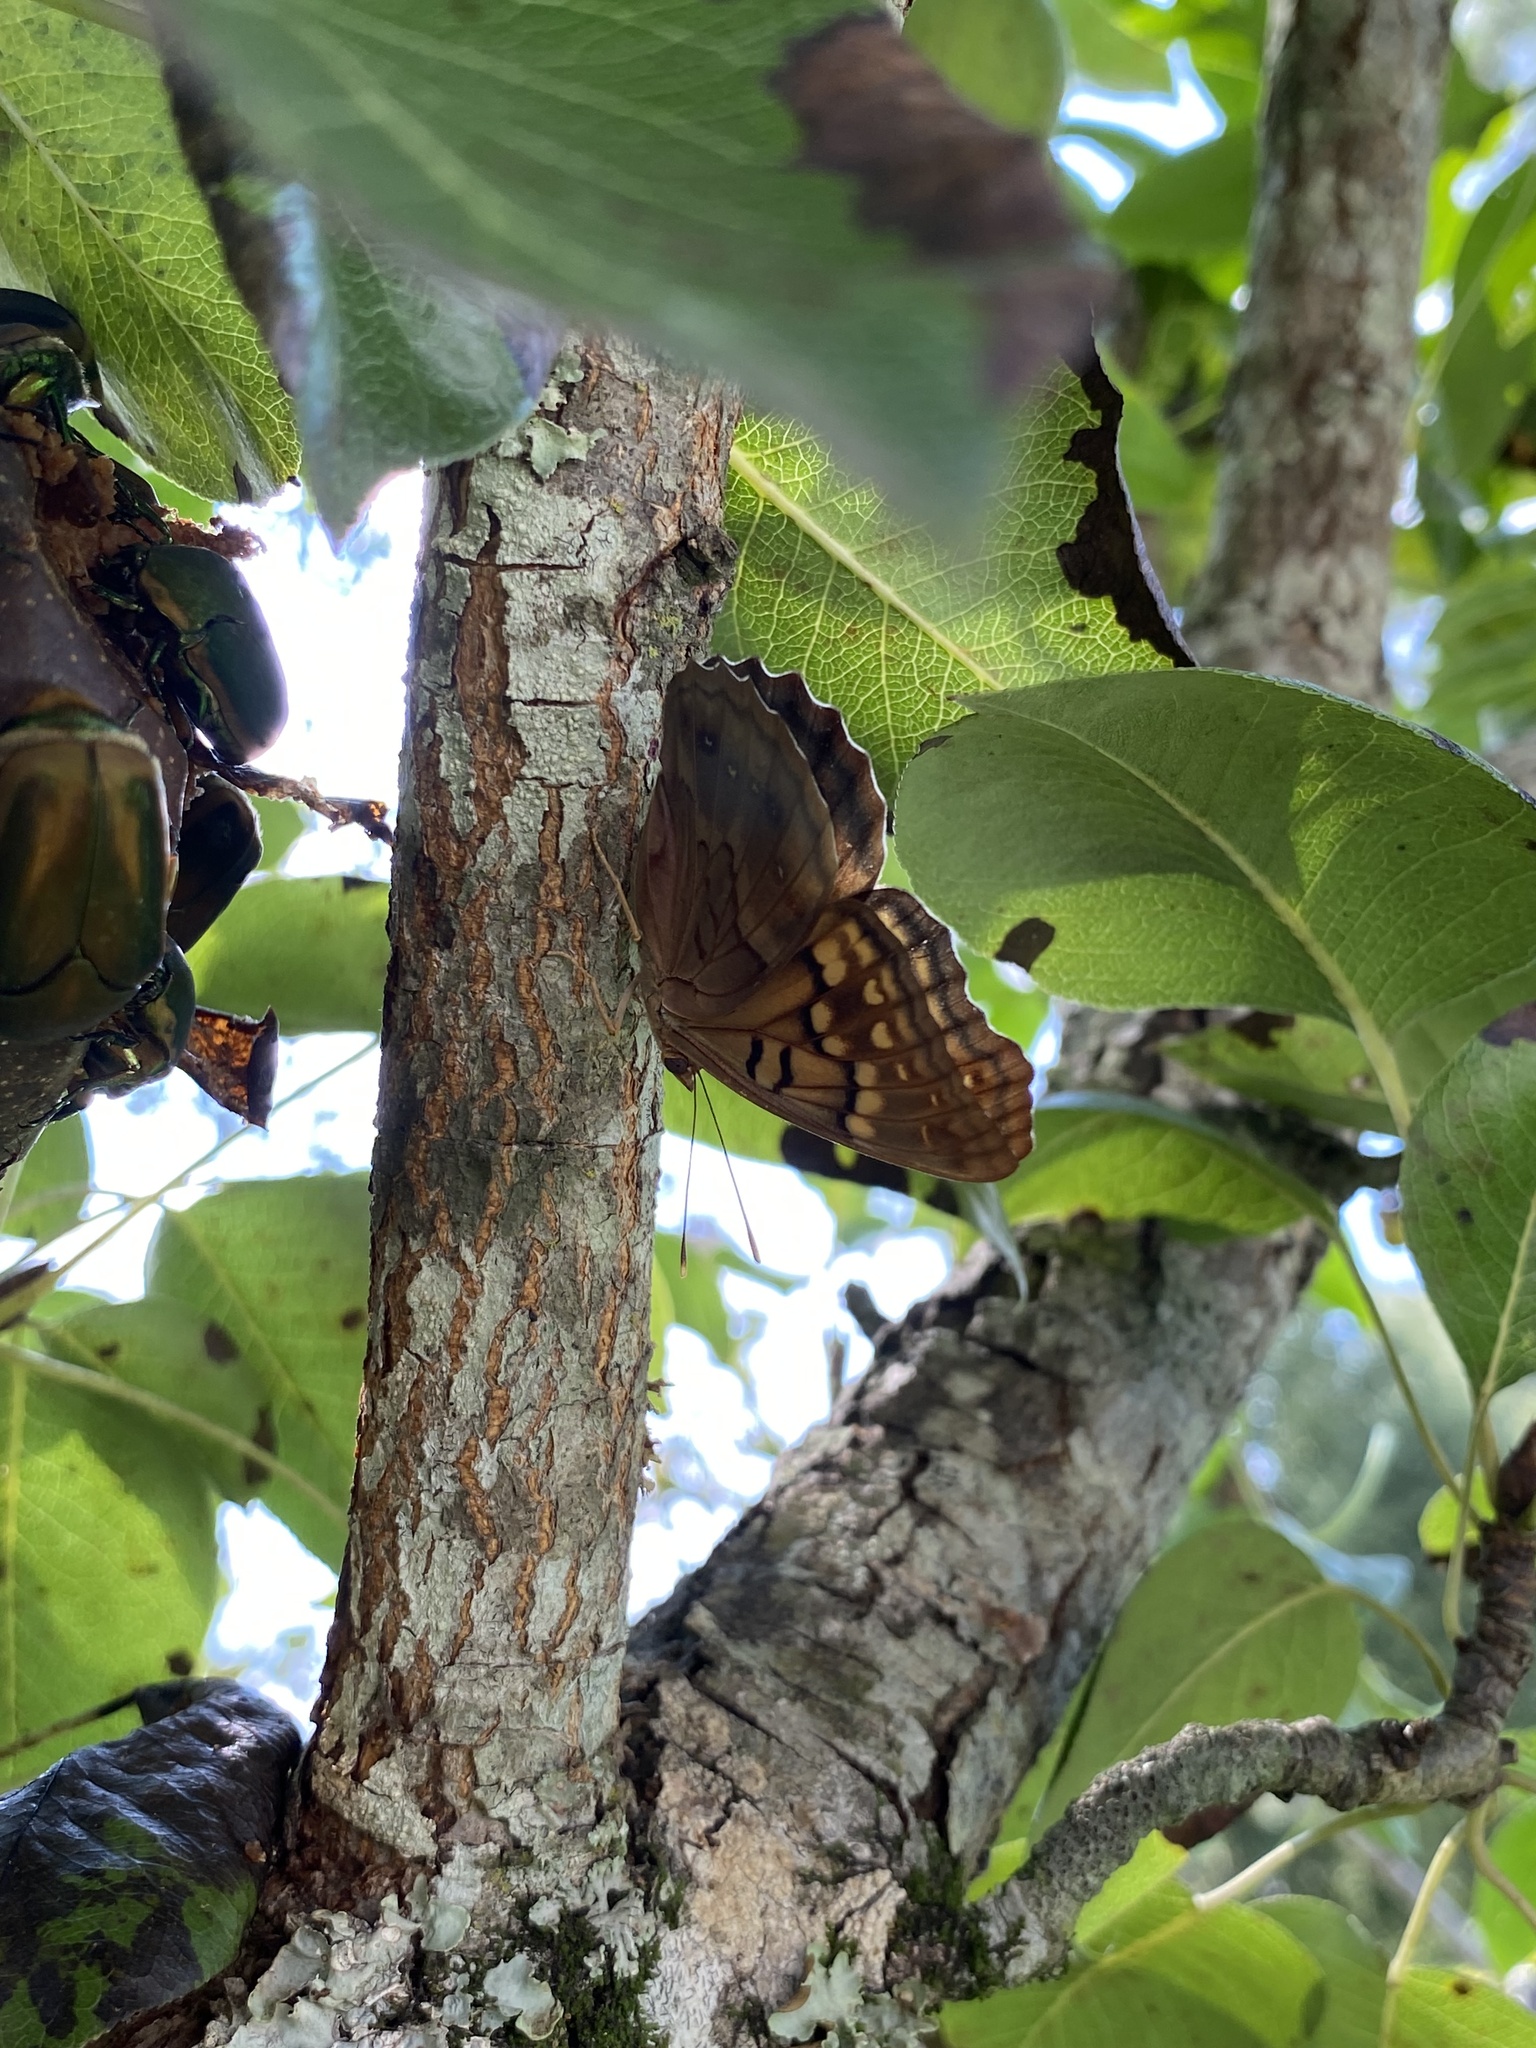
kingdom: Animalia
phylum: Arthropoda
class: Insecta
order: Lepidoptera
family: Nymphalidae
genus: Asterocampa
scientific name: Asterocampa clyton
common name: Tawny emperor
